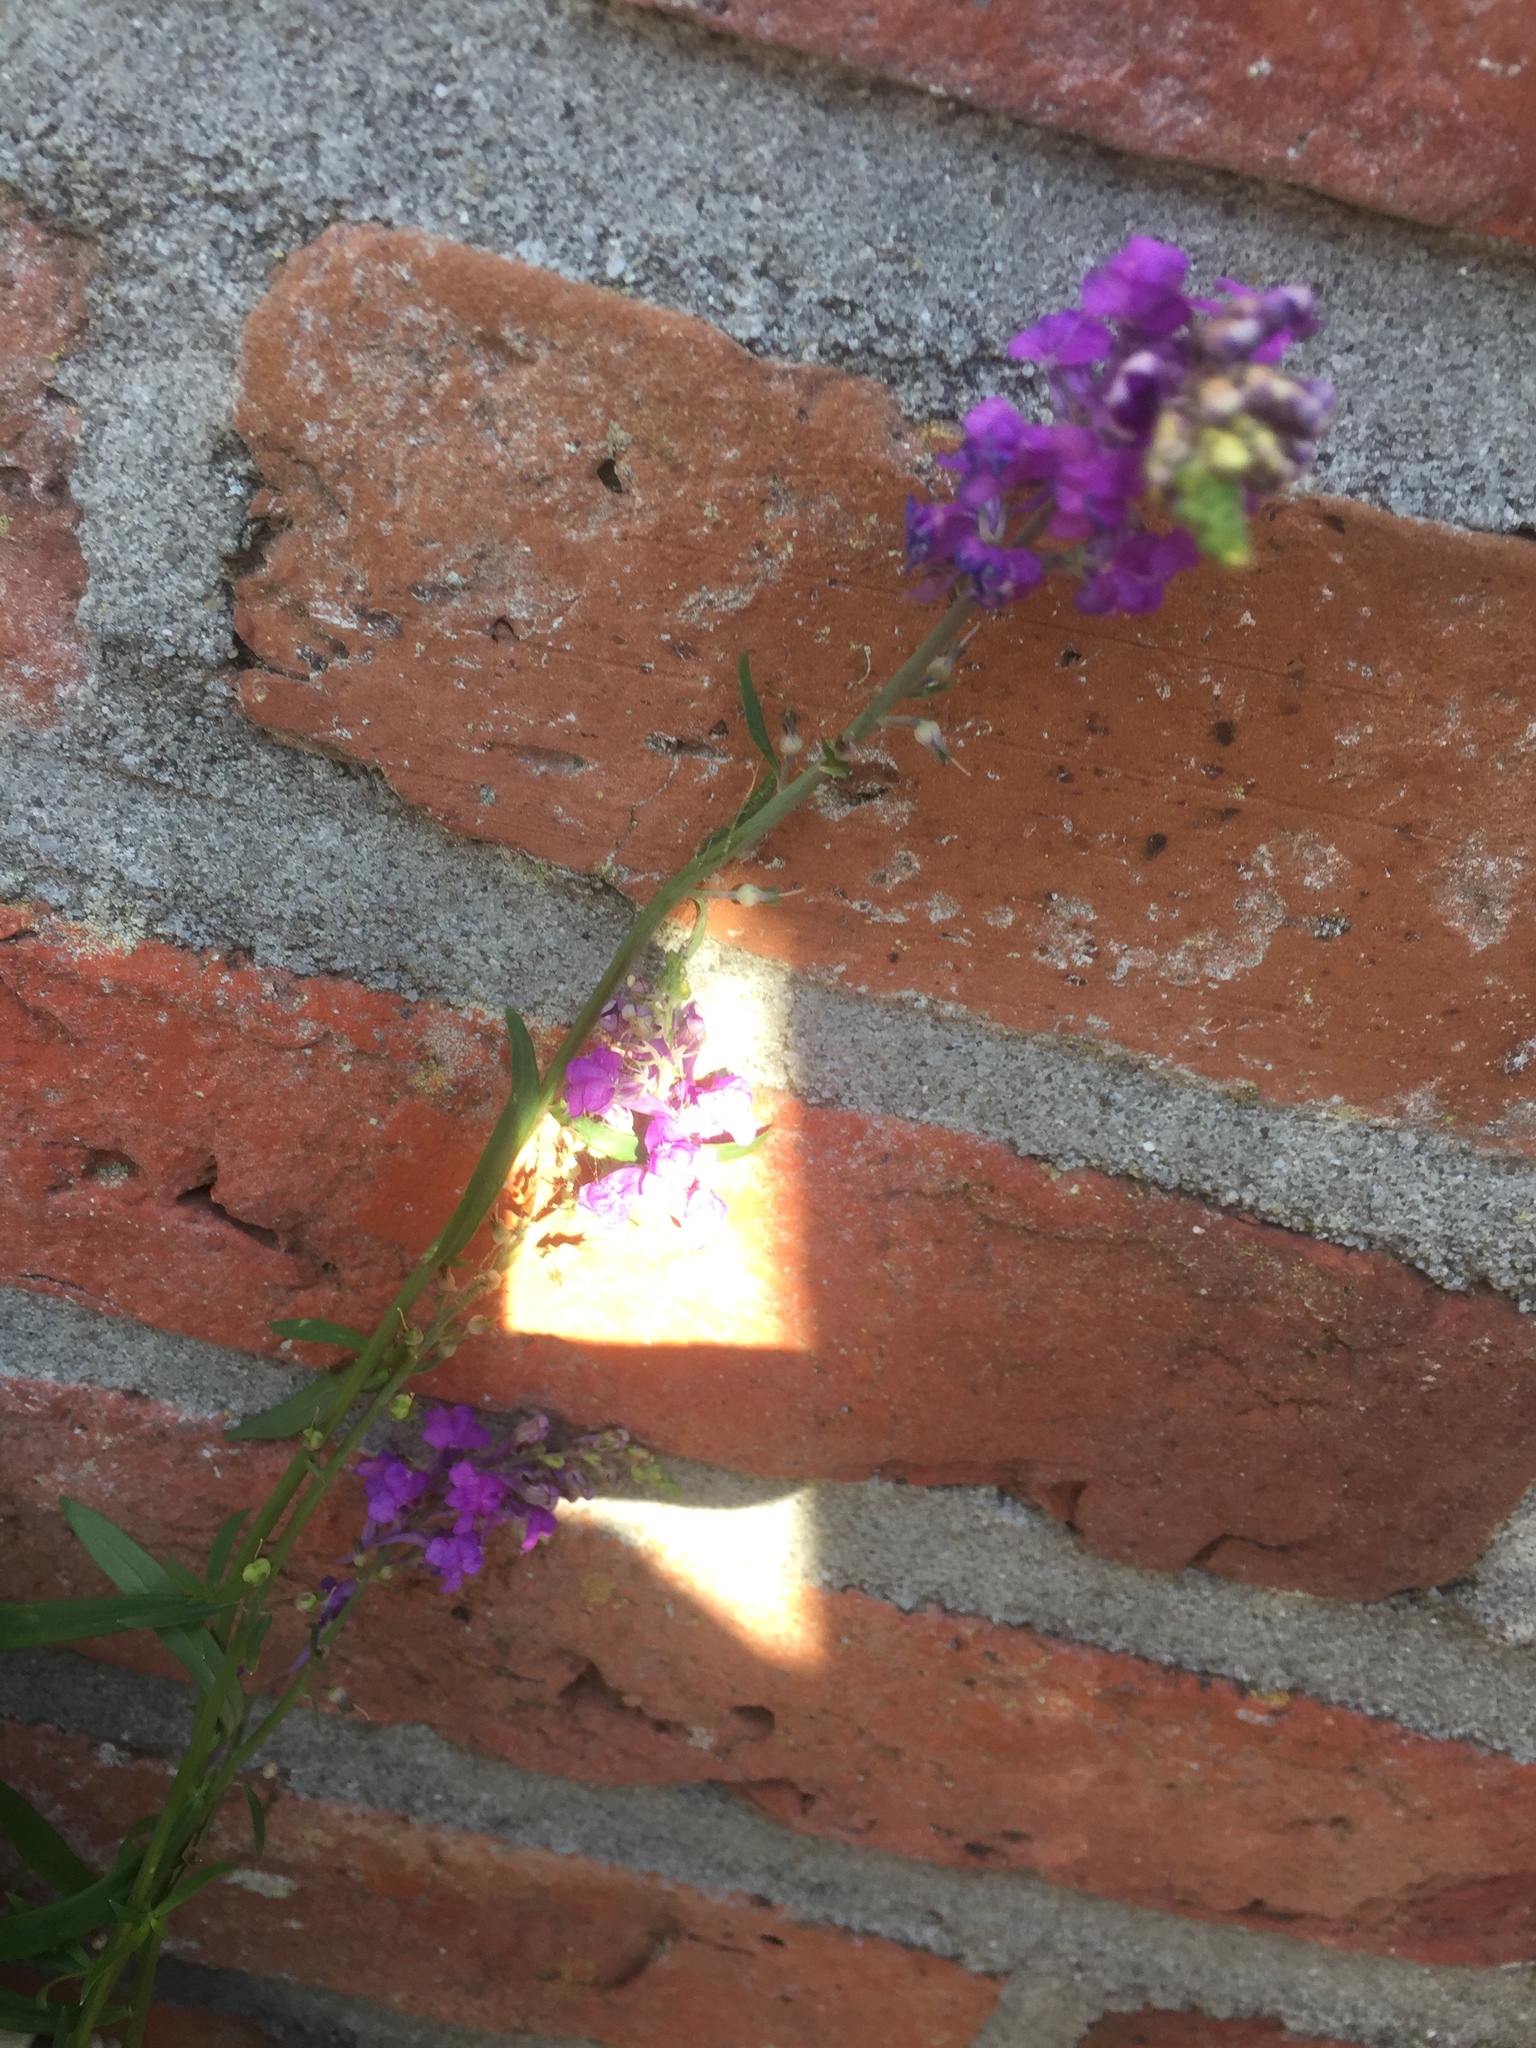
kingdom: Plantae
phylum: Tracheophyta
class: Magnoliopsida
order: Lamiales
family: Plantaginaceae
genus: Linaria
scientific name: Linaria purpurea
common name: Purple toadflax
